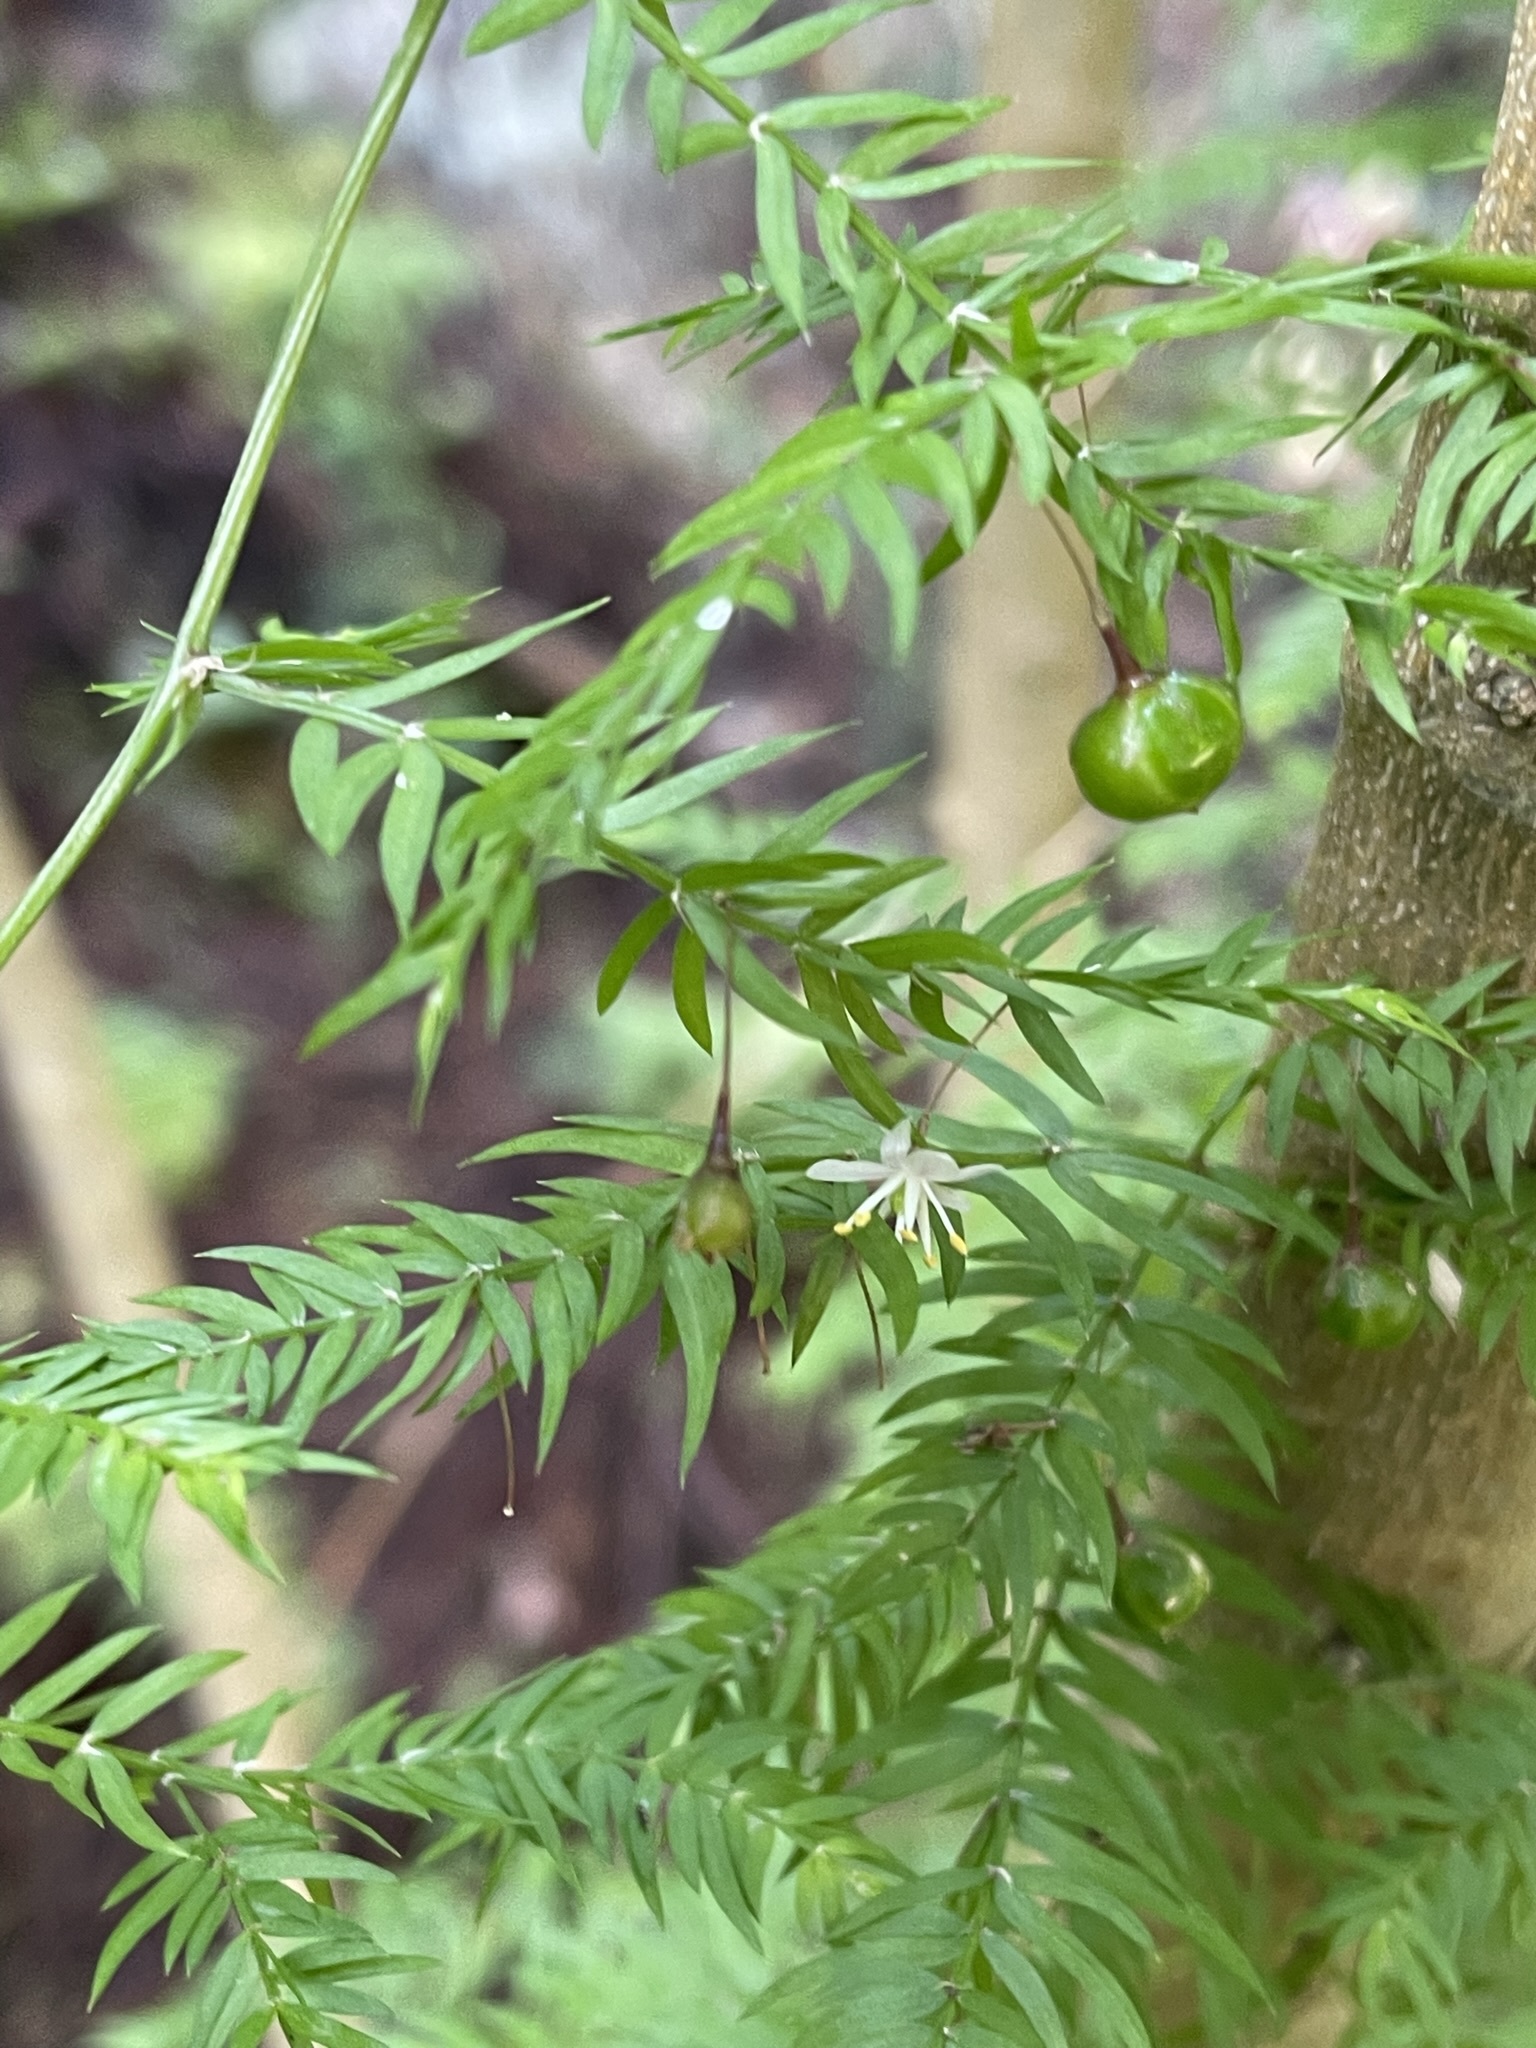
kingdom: Plantae
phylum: Tracheophyta
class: Liliopsida
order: Asparagales
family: Asparagaceae
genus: Asparagus
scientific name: Asparagus scandens
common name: Asparagus-fern
